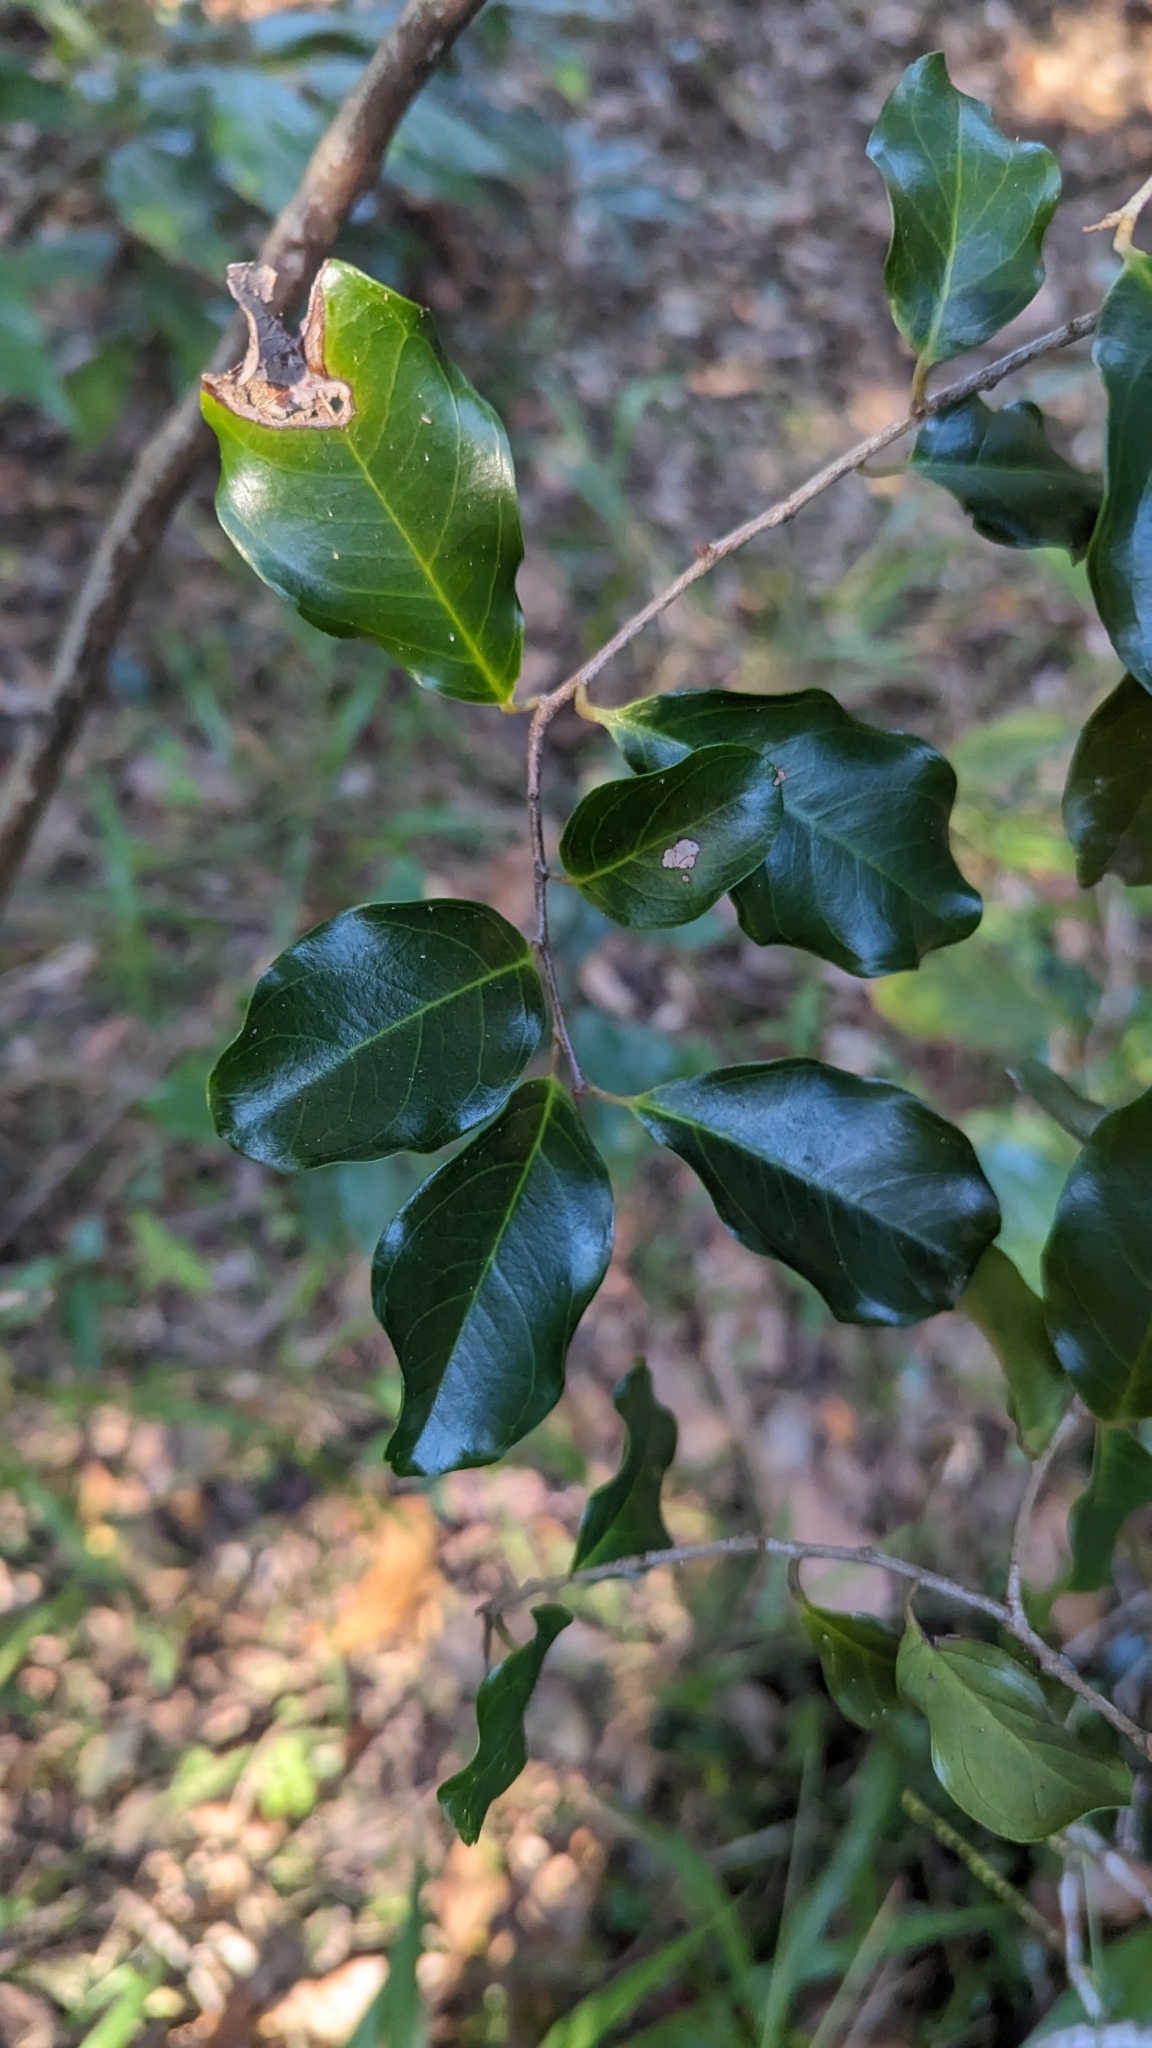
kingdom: Plantae
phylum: Tracheophyta
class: Magnoliopsida
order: Ericales
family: Primulaceae
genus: Embelia
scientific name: Embelia australiana
